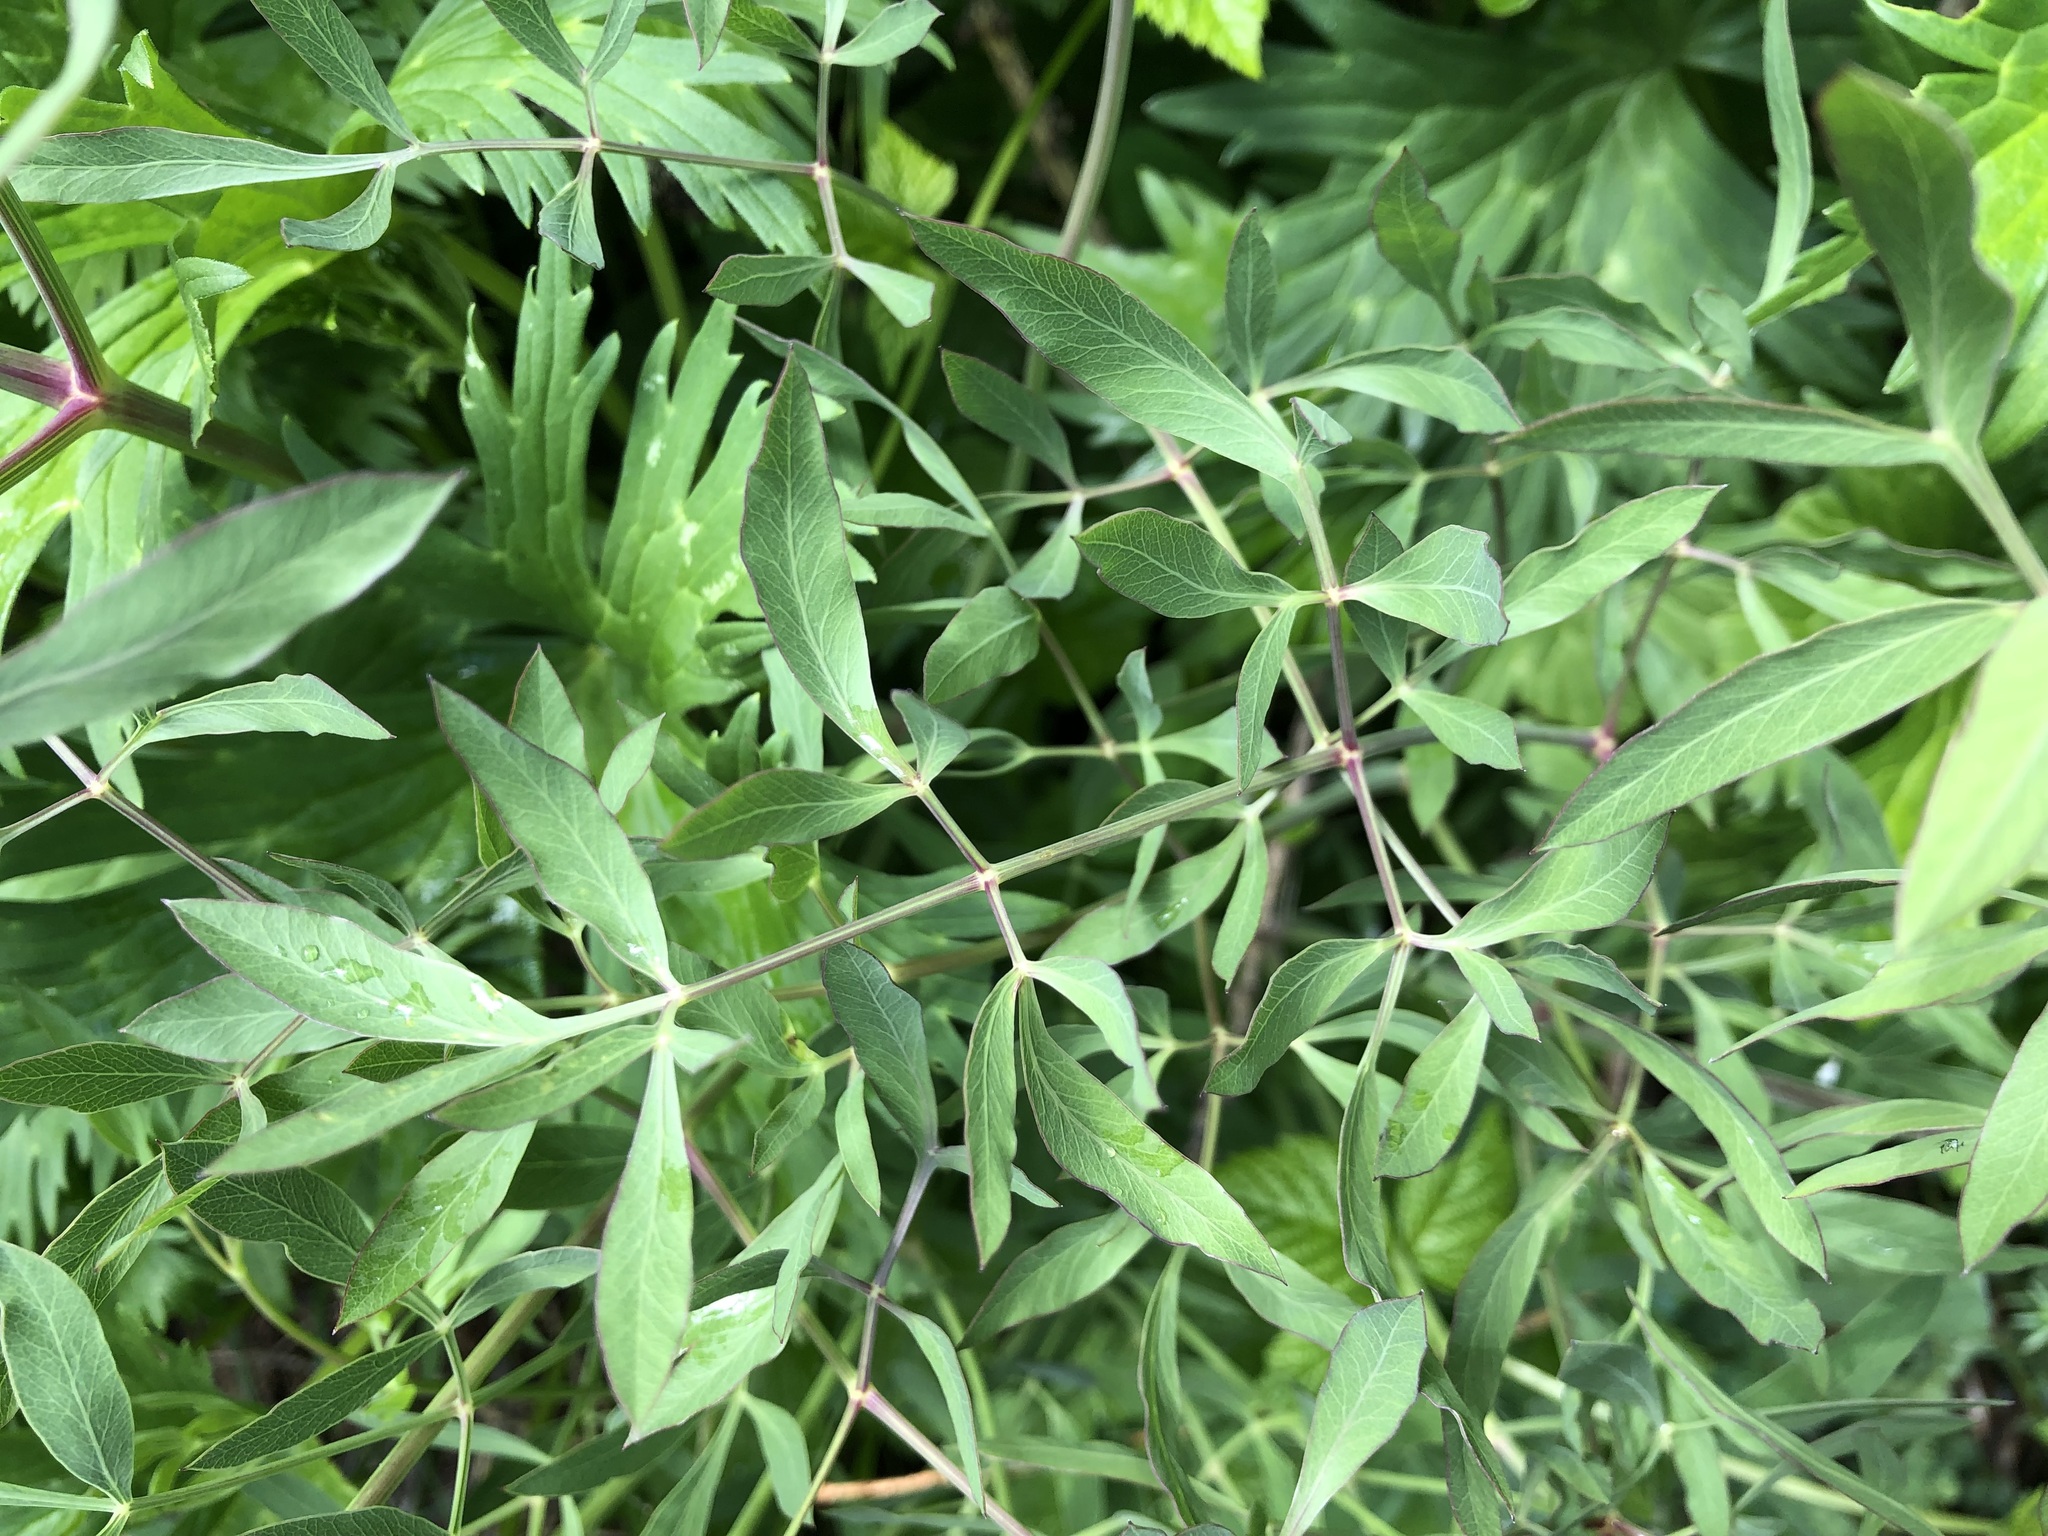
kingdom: Plantae
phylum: Tracheophyta
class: Magnoliopsida
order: Apiales
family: Apiaceae
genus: Siler
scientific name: Siler montanum
